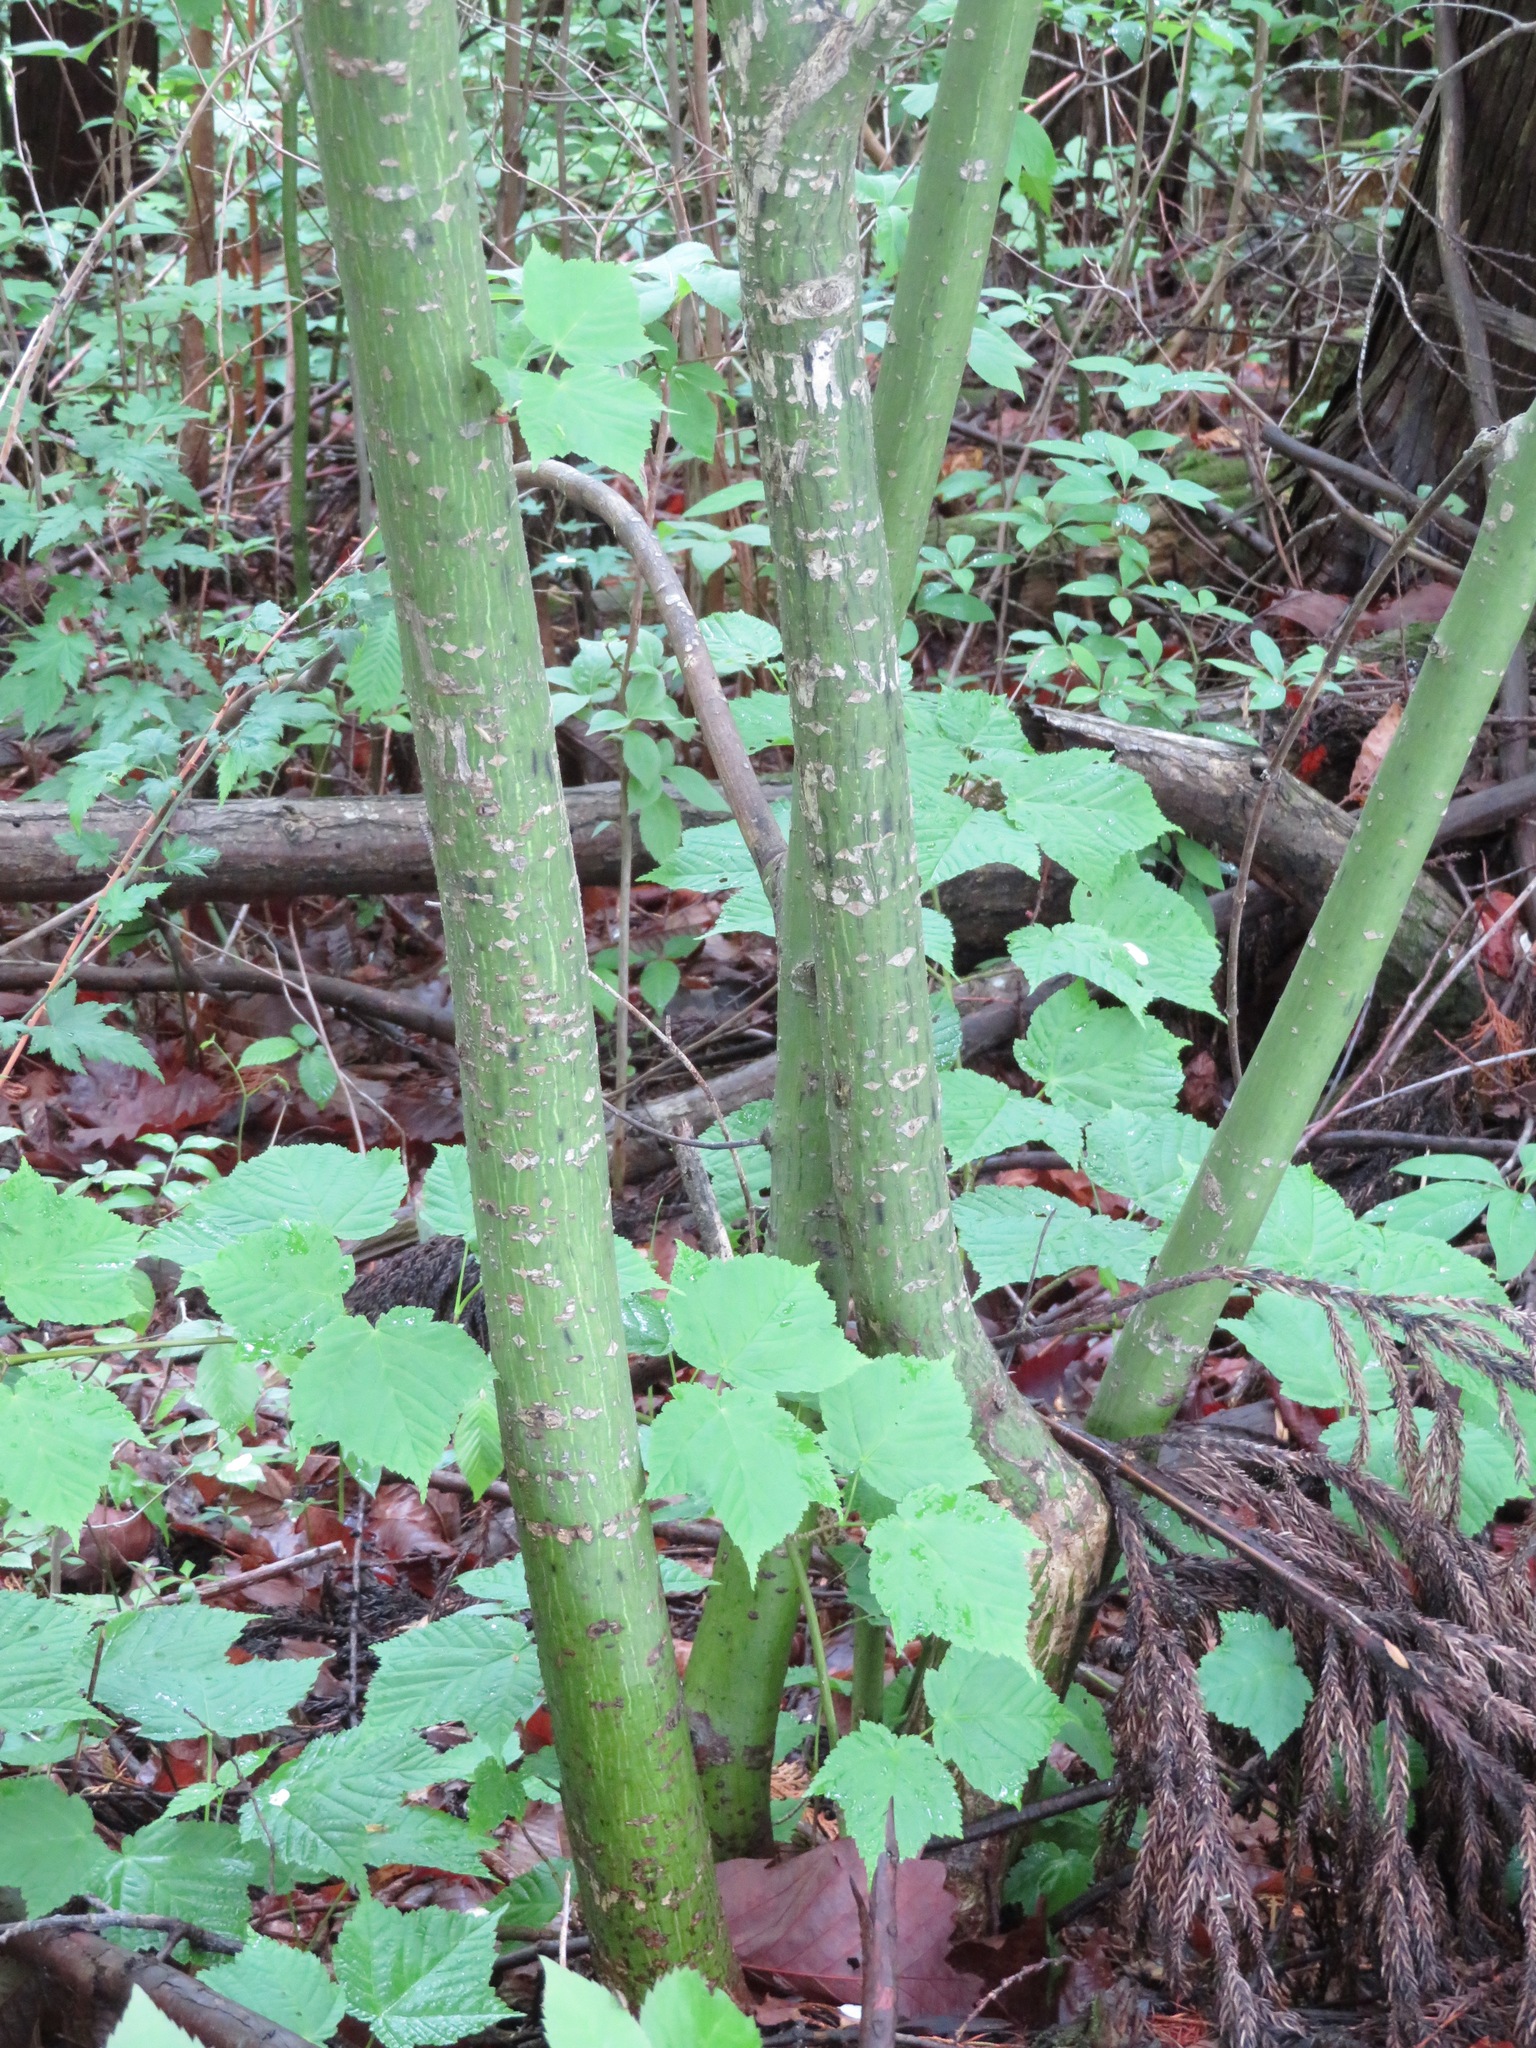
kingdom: Plantae
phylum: Tracheophyta
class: Magnoliopsida
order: Sapindales
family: Sapindaceae
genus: Acer
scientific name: Acer rufinerve
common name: Red veined maple
